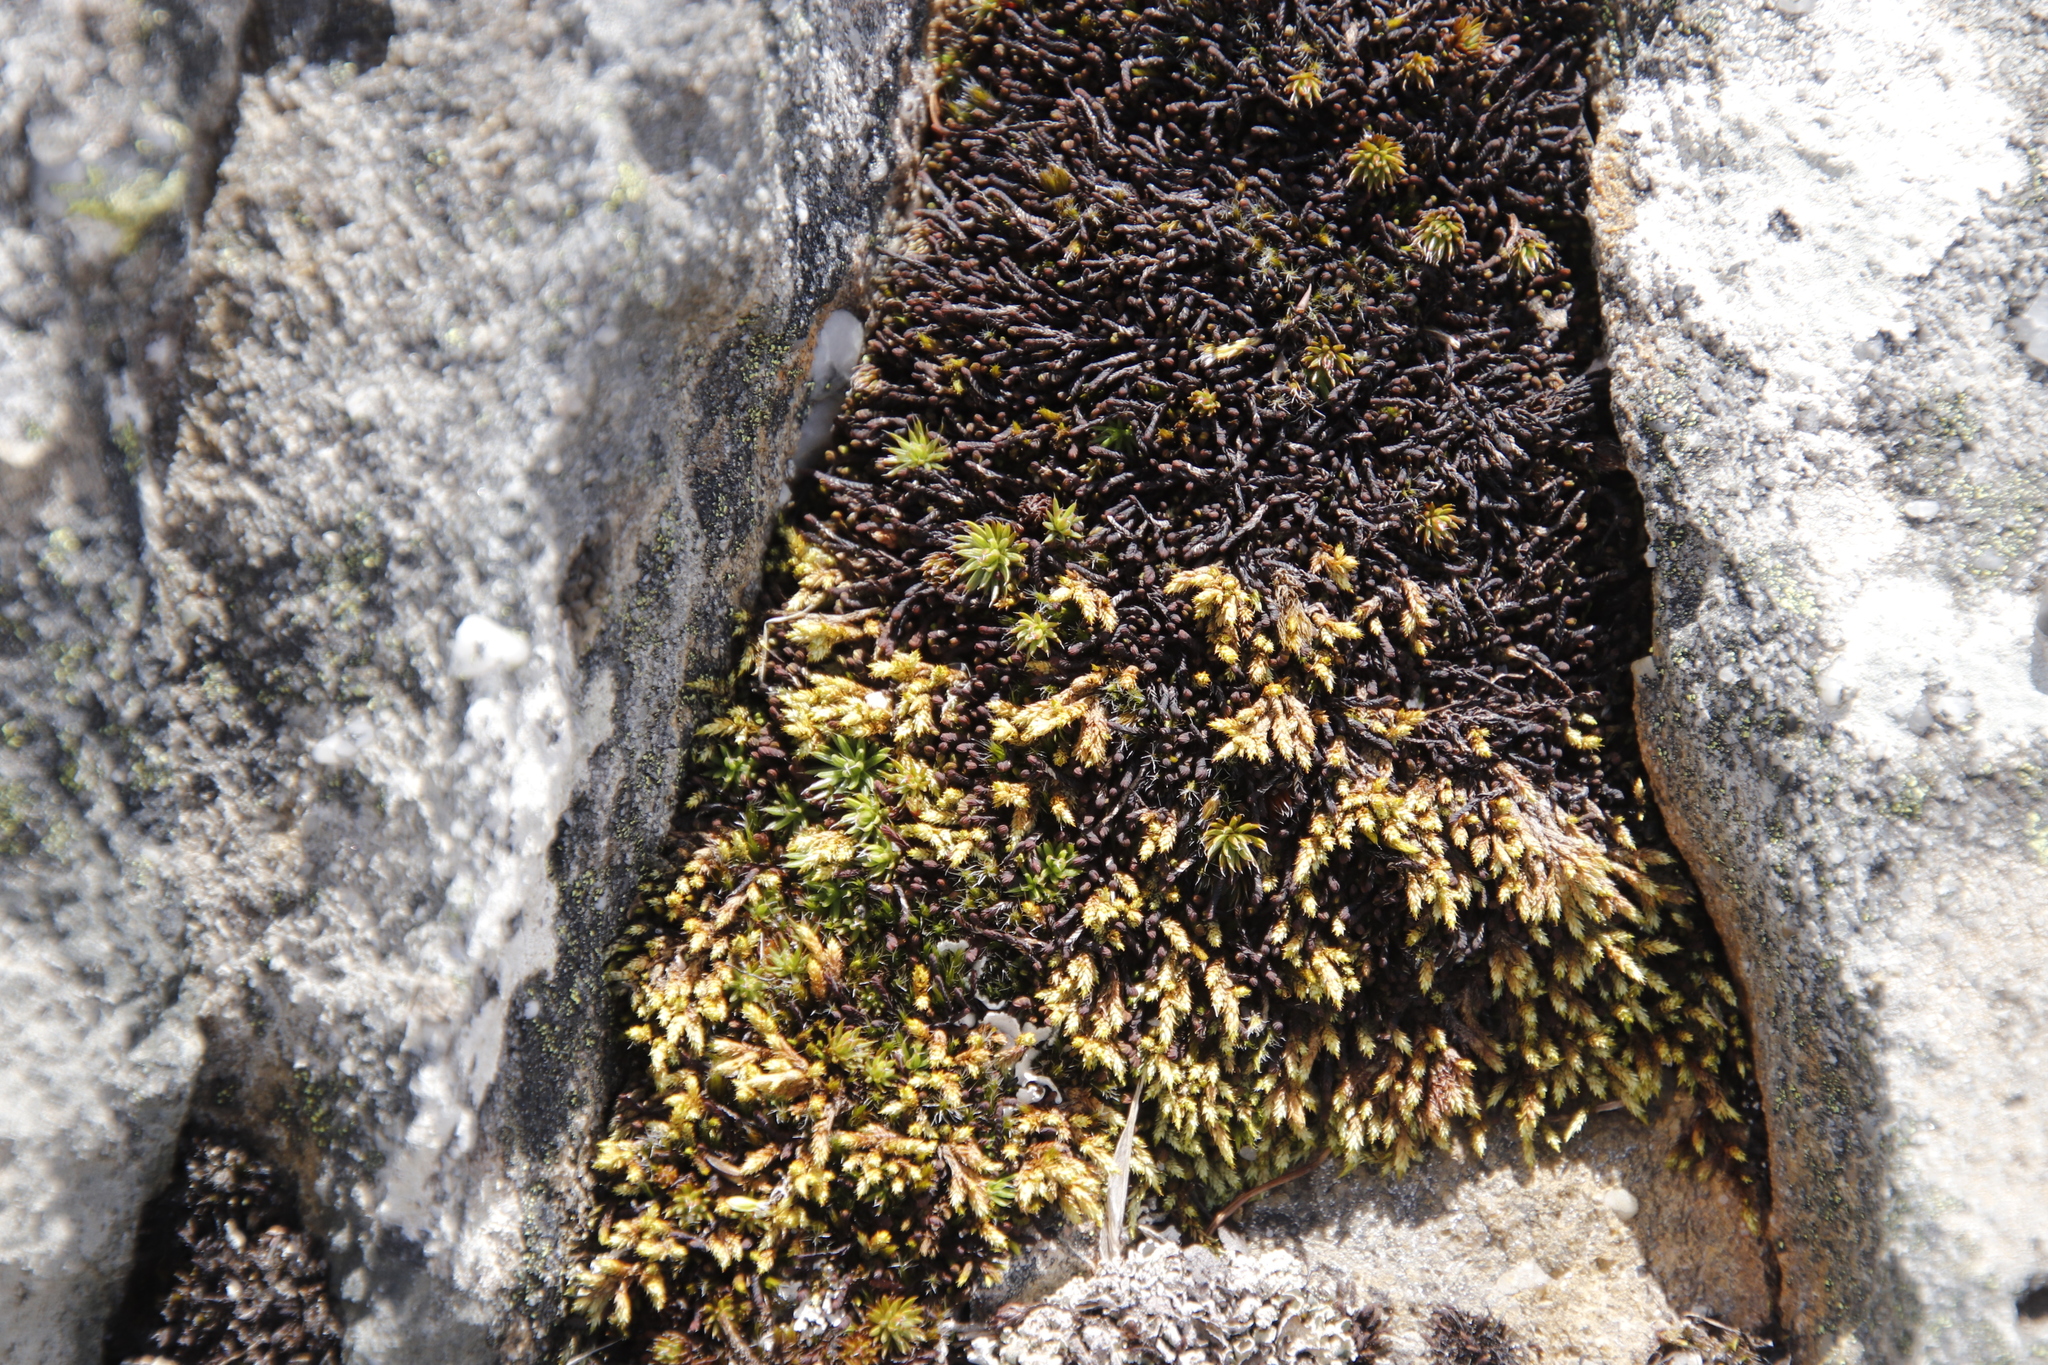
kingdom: Plantae
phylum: Bryophyta
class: Bryopsida
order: Hedwigiales
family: Hedwigiaceae
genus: Rhacocarpus
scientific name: Rhacocarpus purpurascens
